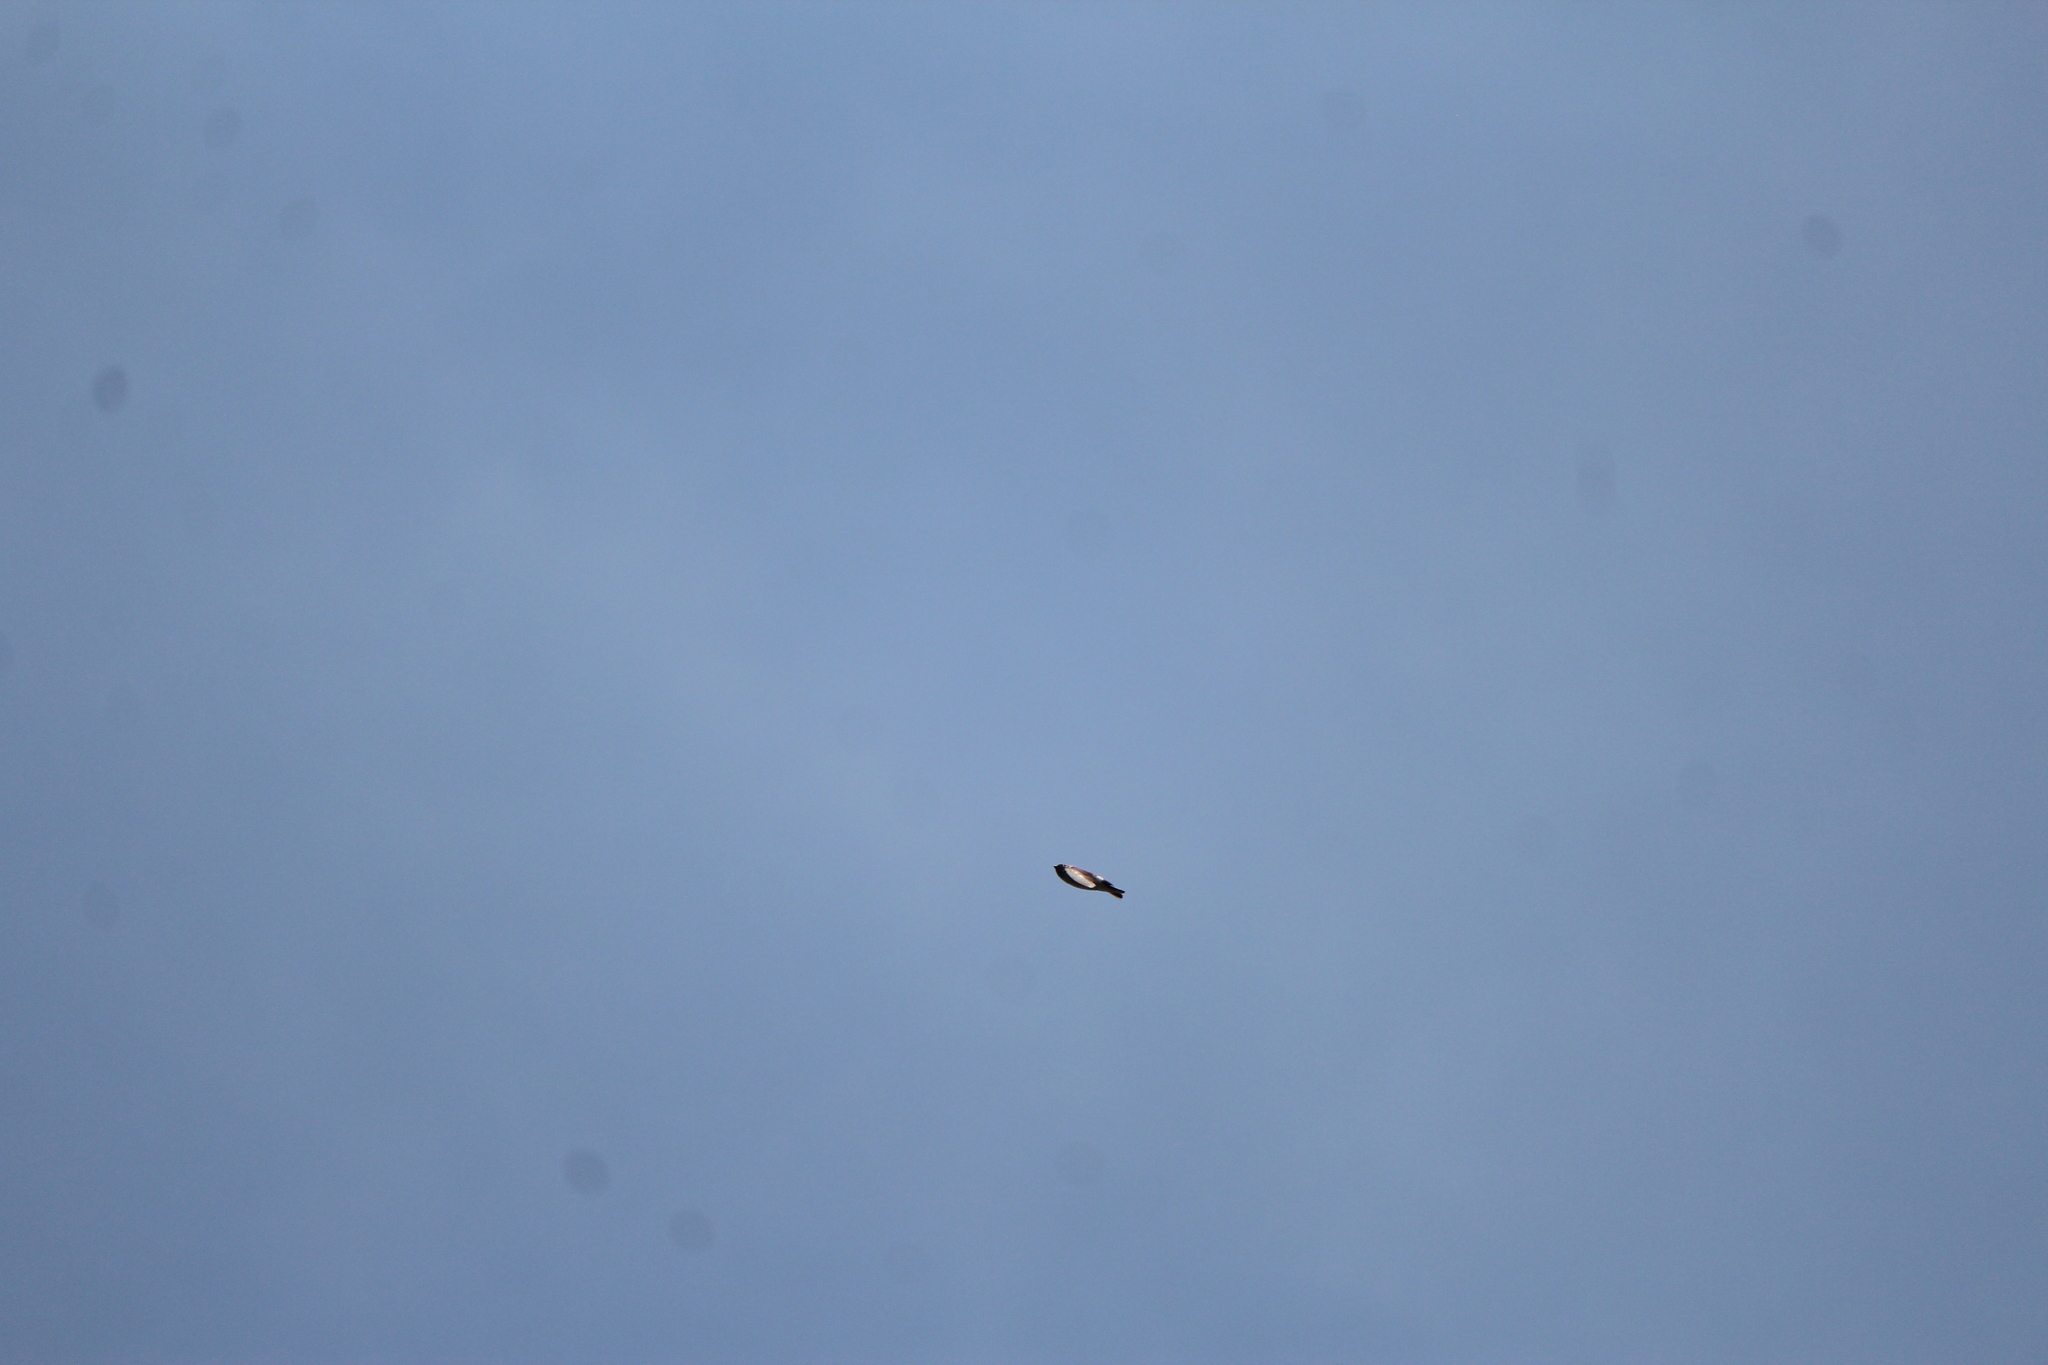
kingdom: Animalia
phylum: Chordata
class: Aves
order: Passeriformes
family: Hirundinidae
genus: Tachycineta
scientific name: Tachycineta thalassina
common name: Violet-green swallow
